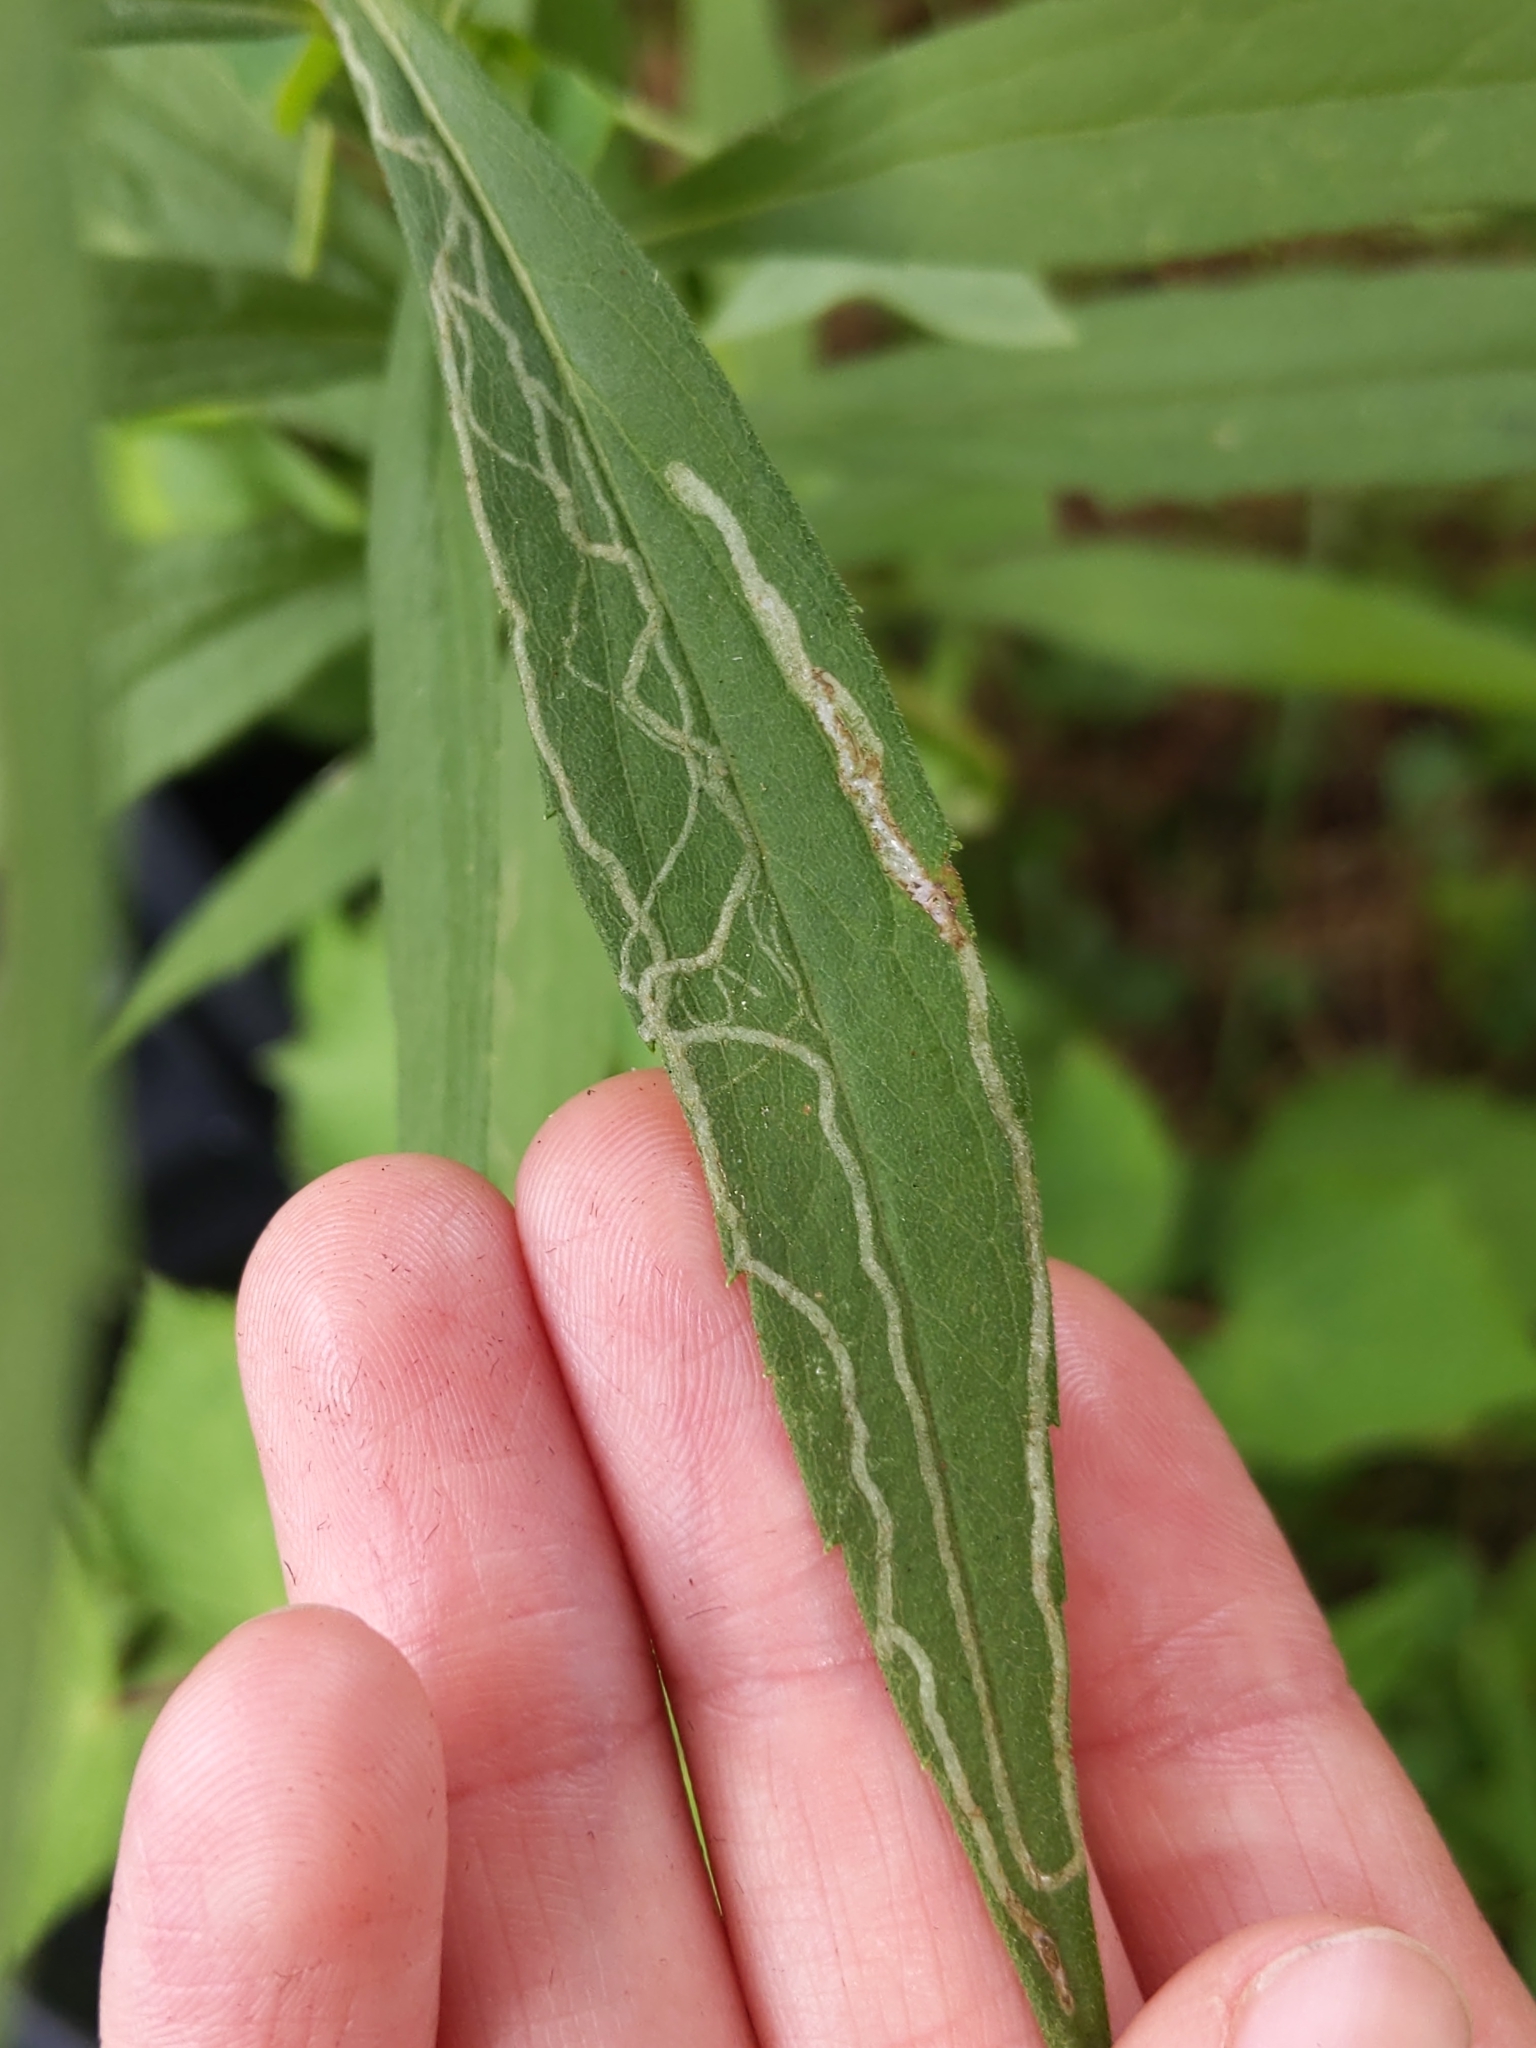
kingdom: Animalia
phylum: Arthropoda
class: Insecta
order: Diptera
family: Agromyzidae
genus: Ophiomyia
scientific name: Ophiomyia maura
